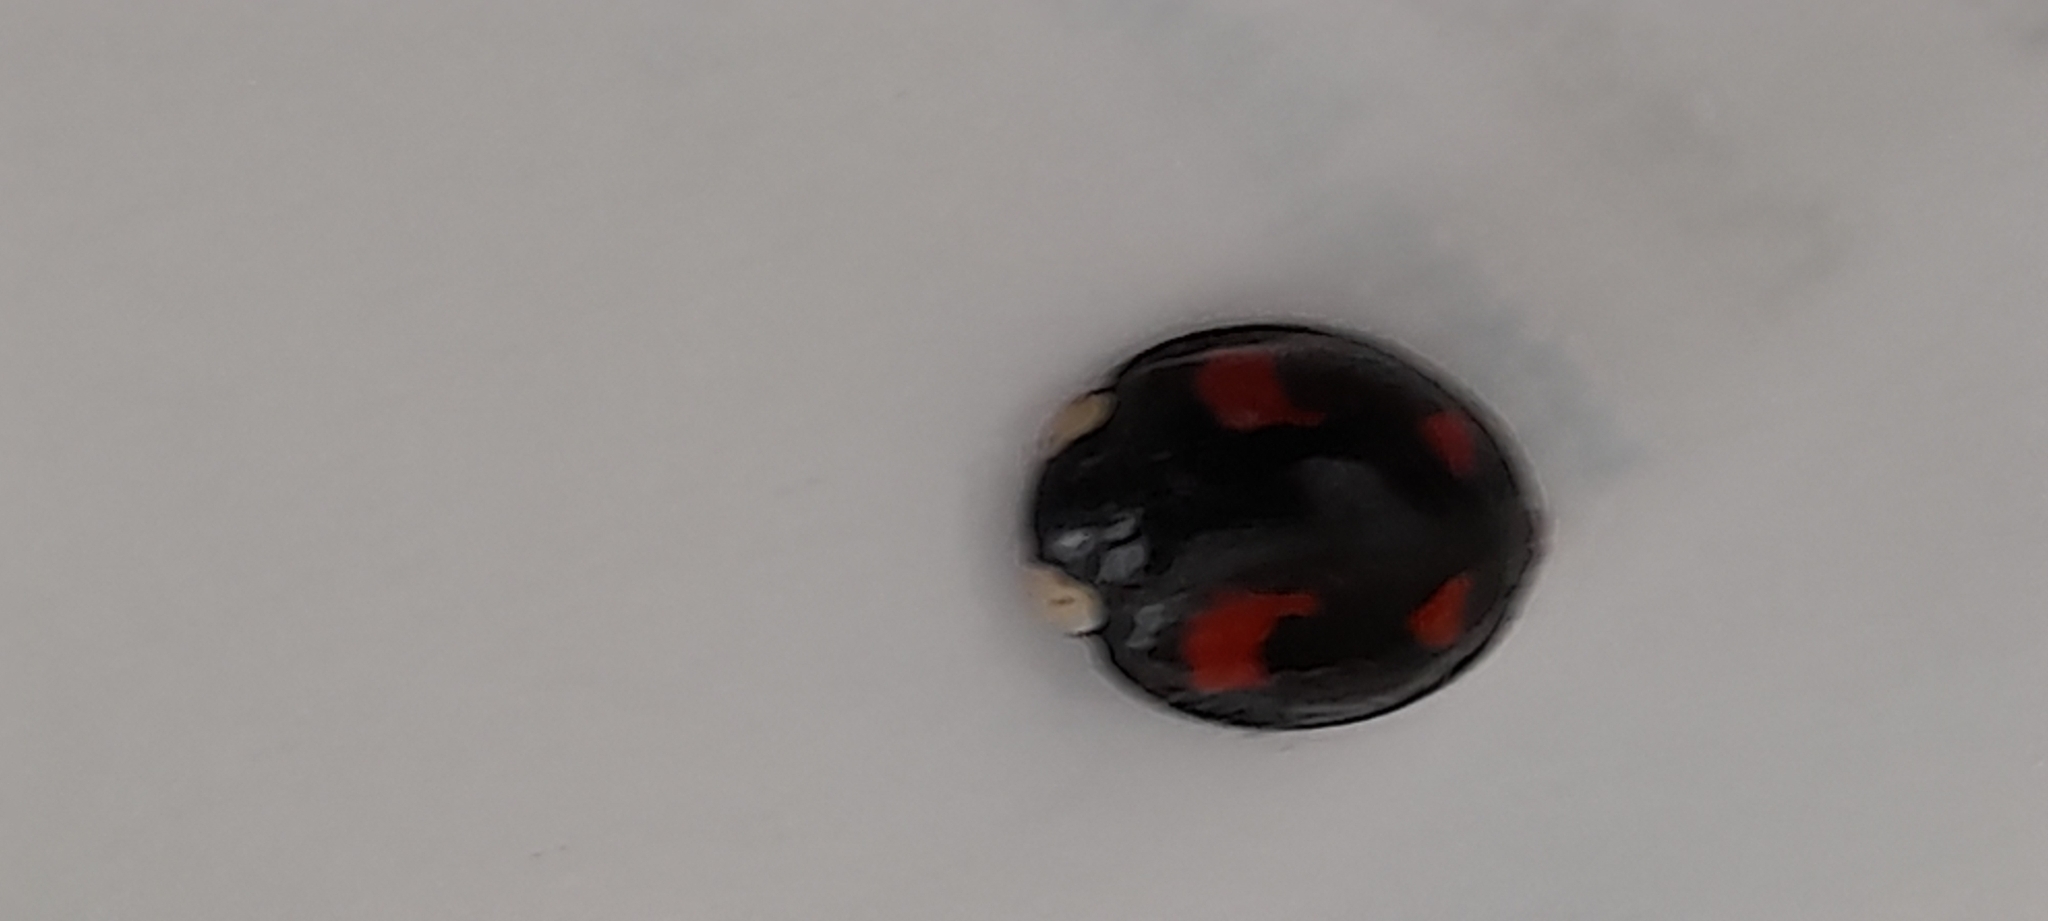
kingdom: Animalia
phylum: Arthropoda
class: Insecta
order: Coleoptera
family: Coccinellidae
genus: Harmonia
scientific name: Harmonia axyridis
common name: Harlequin ladybird
